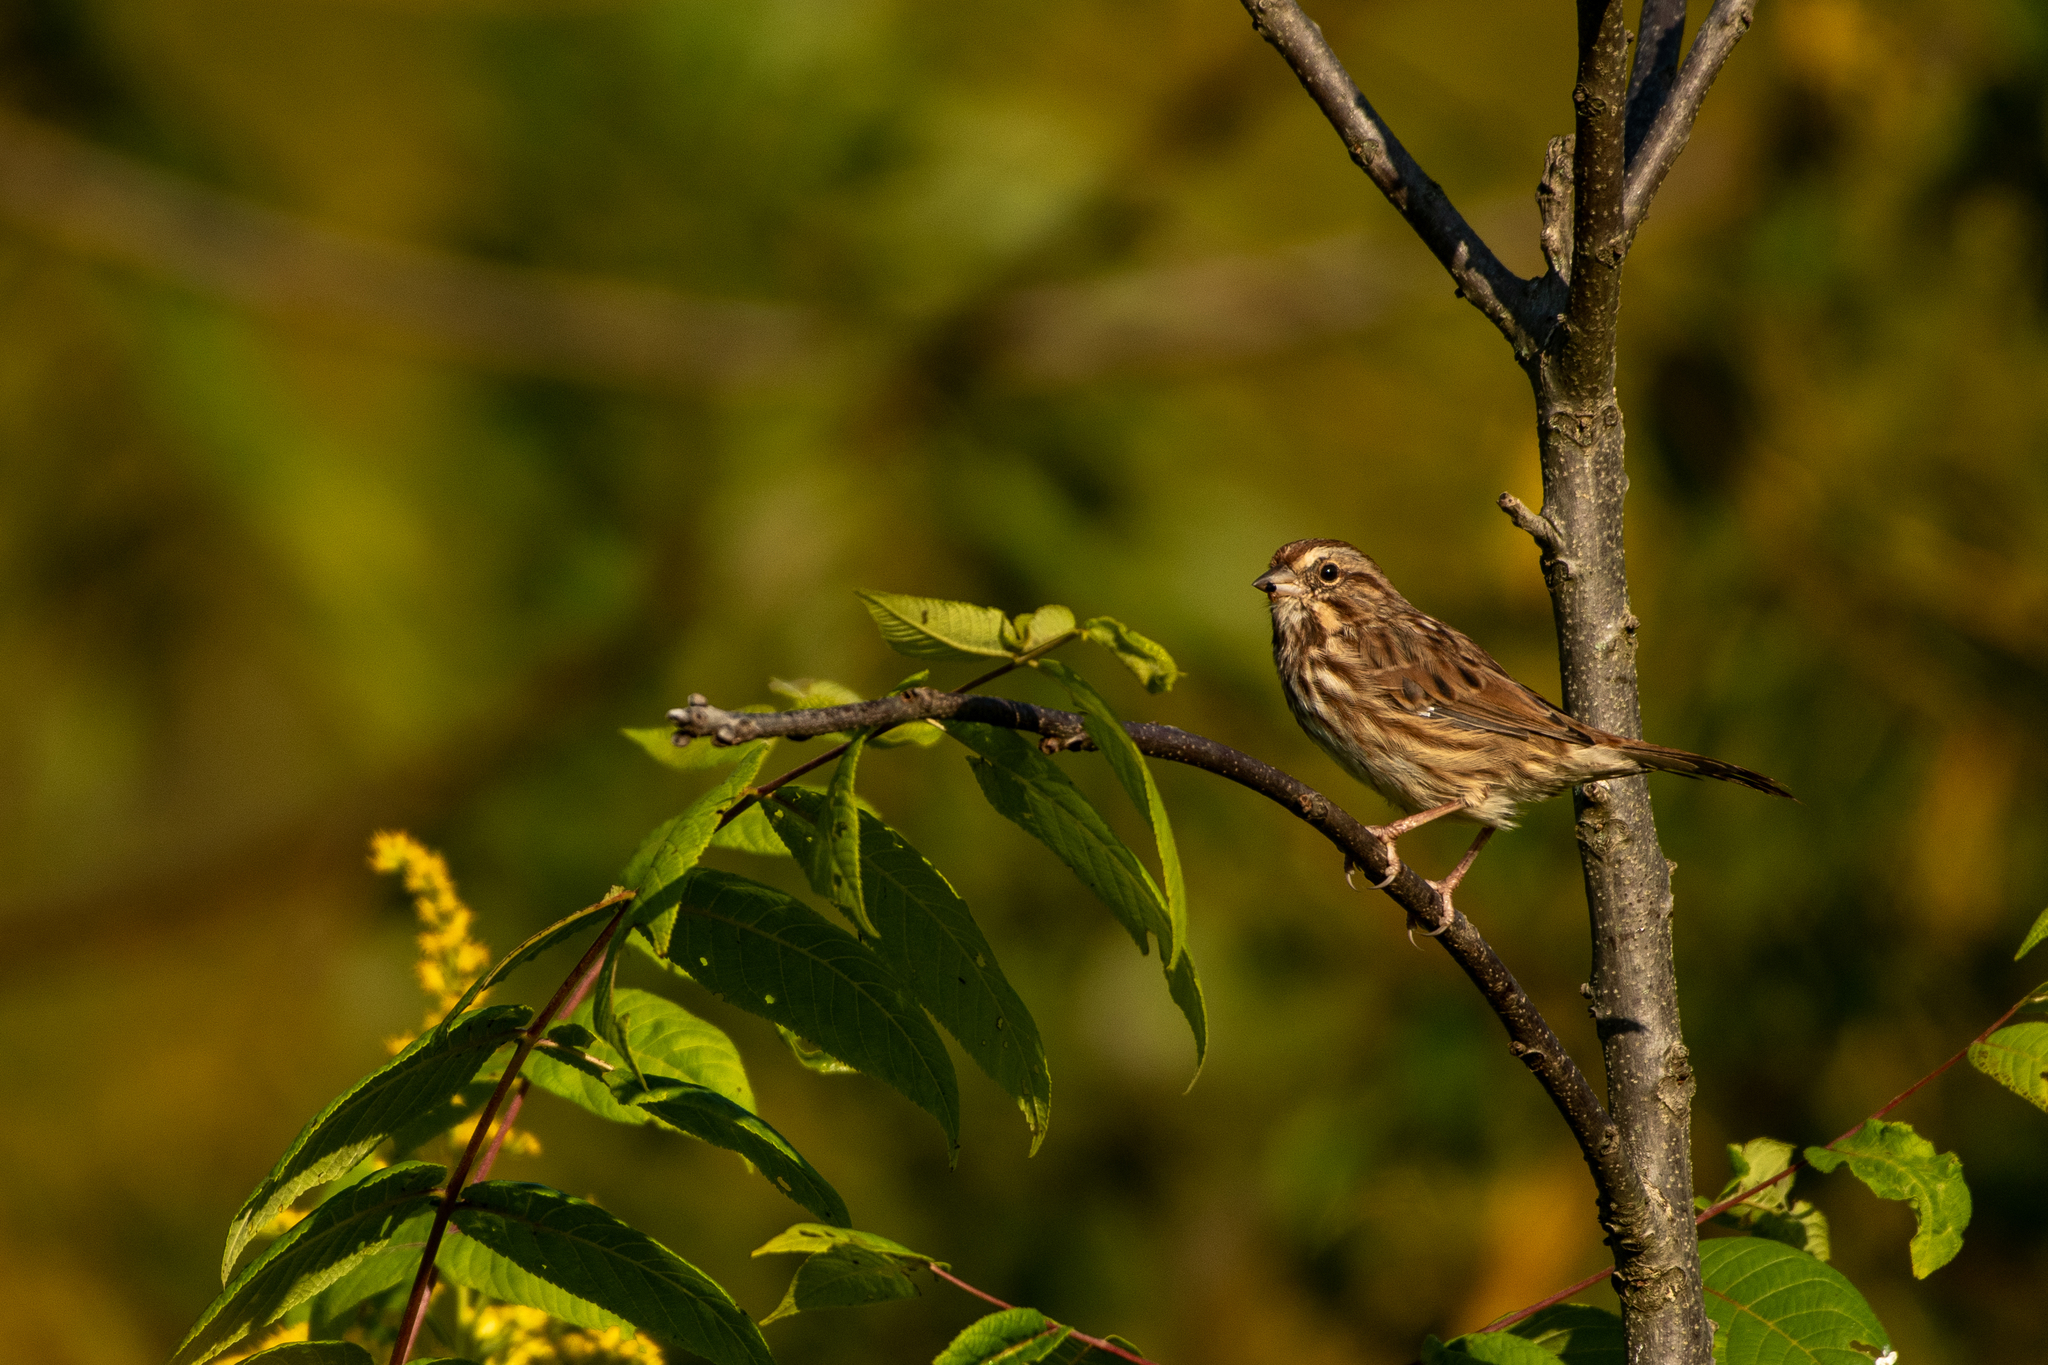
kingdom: Animalia
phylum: Chordata
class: Aves
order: Passeriformes
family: Passerellidae
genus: Melospiza
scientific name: Melospiza melodia
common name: Song sparrow
